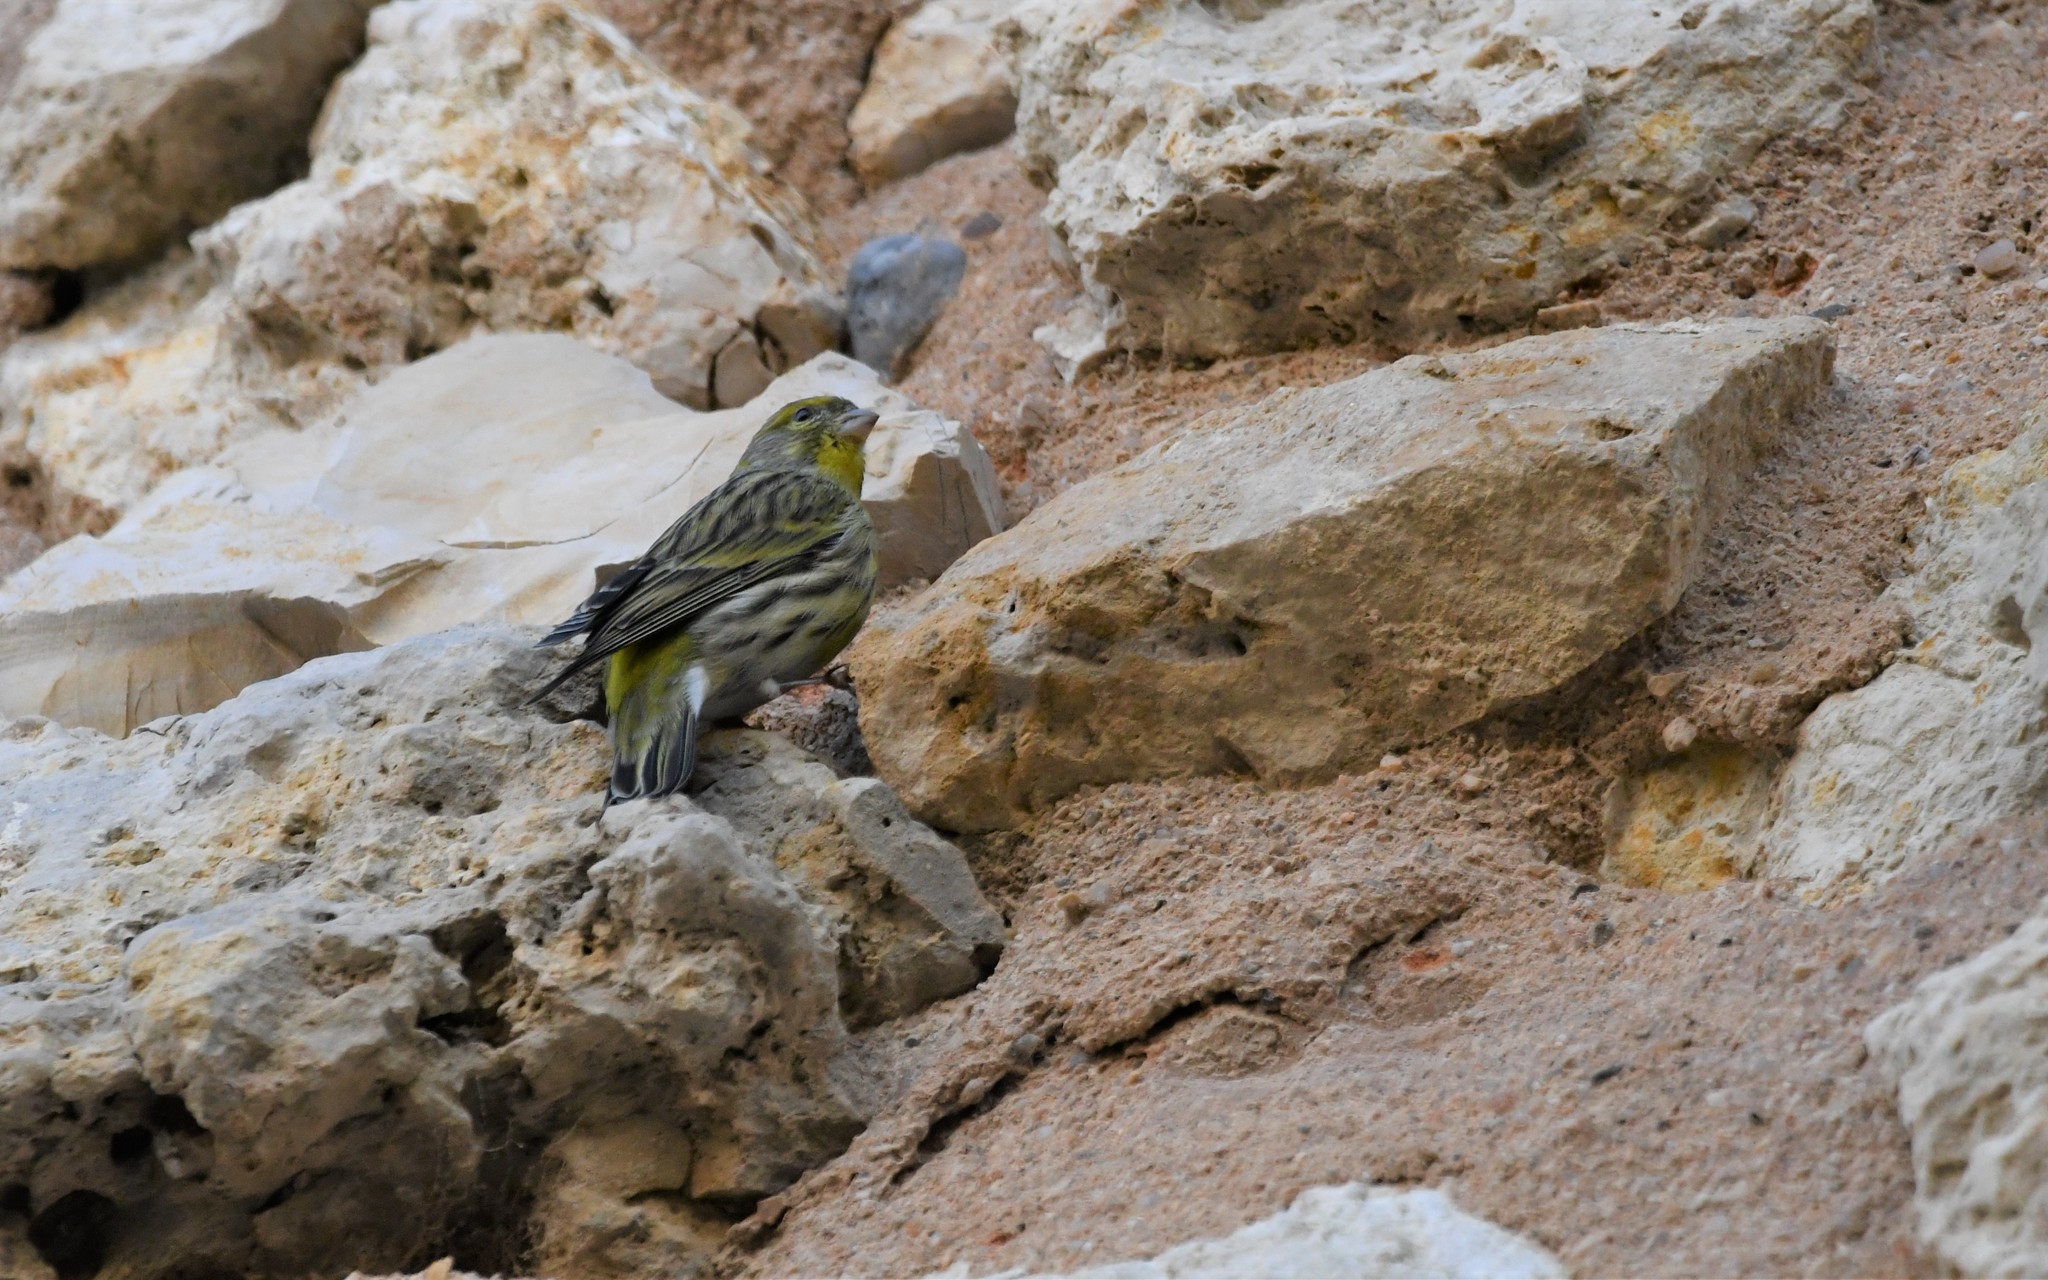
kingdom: Animalia
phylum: Chordata
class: Aves
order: Passeriformes
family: Fringillidae
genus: Serinus
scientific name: Serinus serinus
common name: European serin
